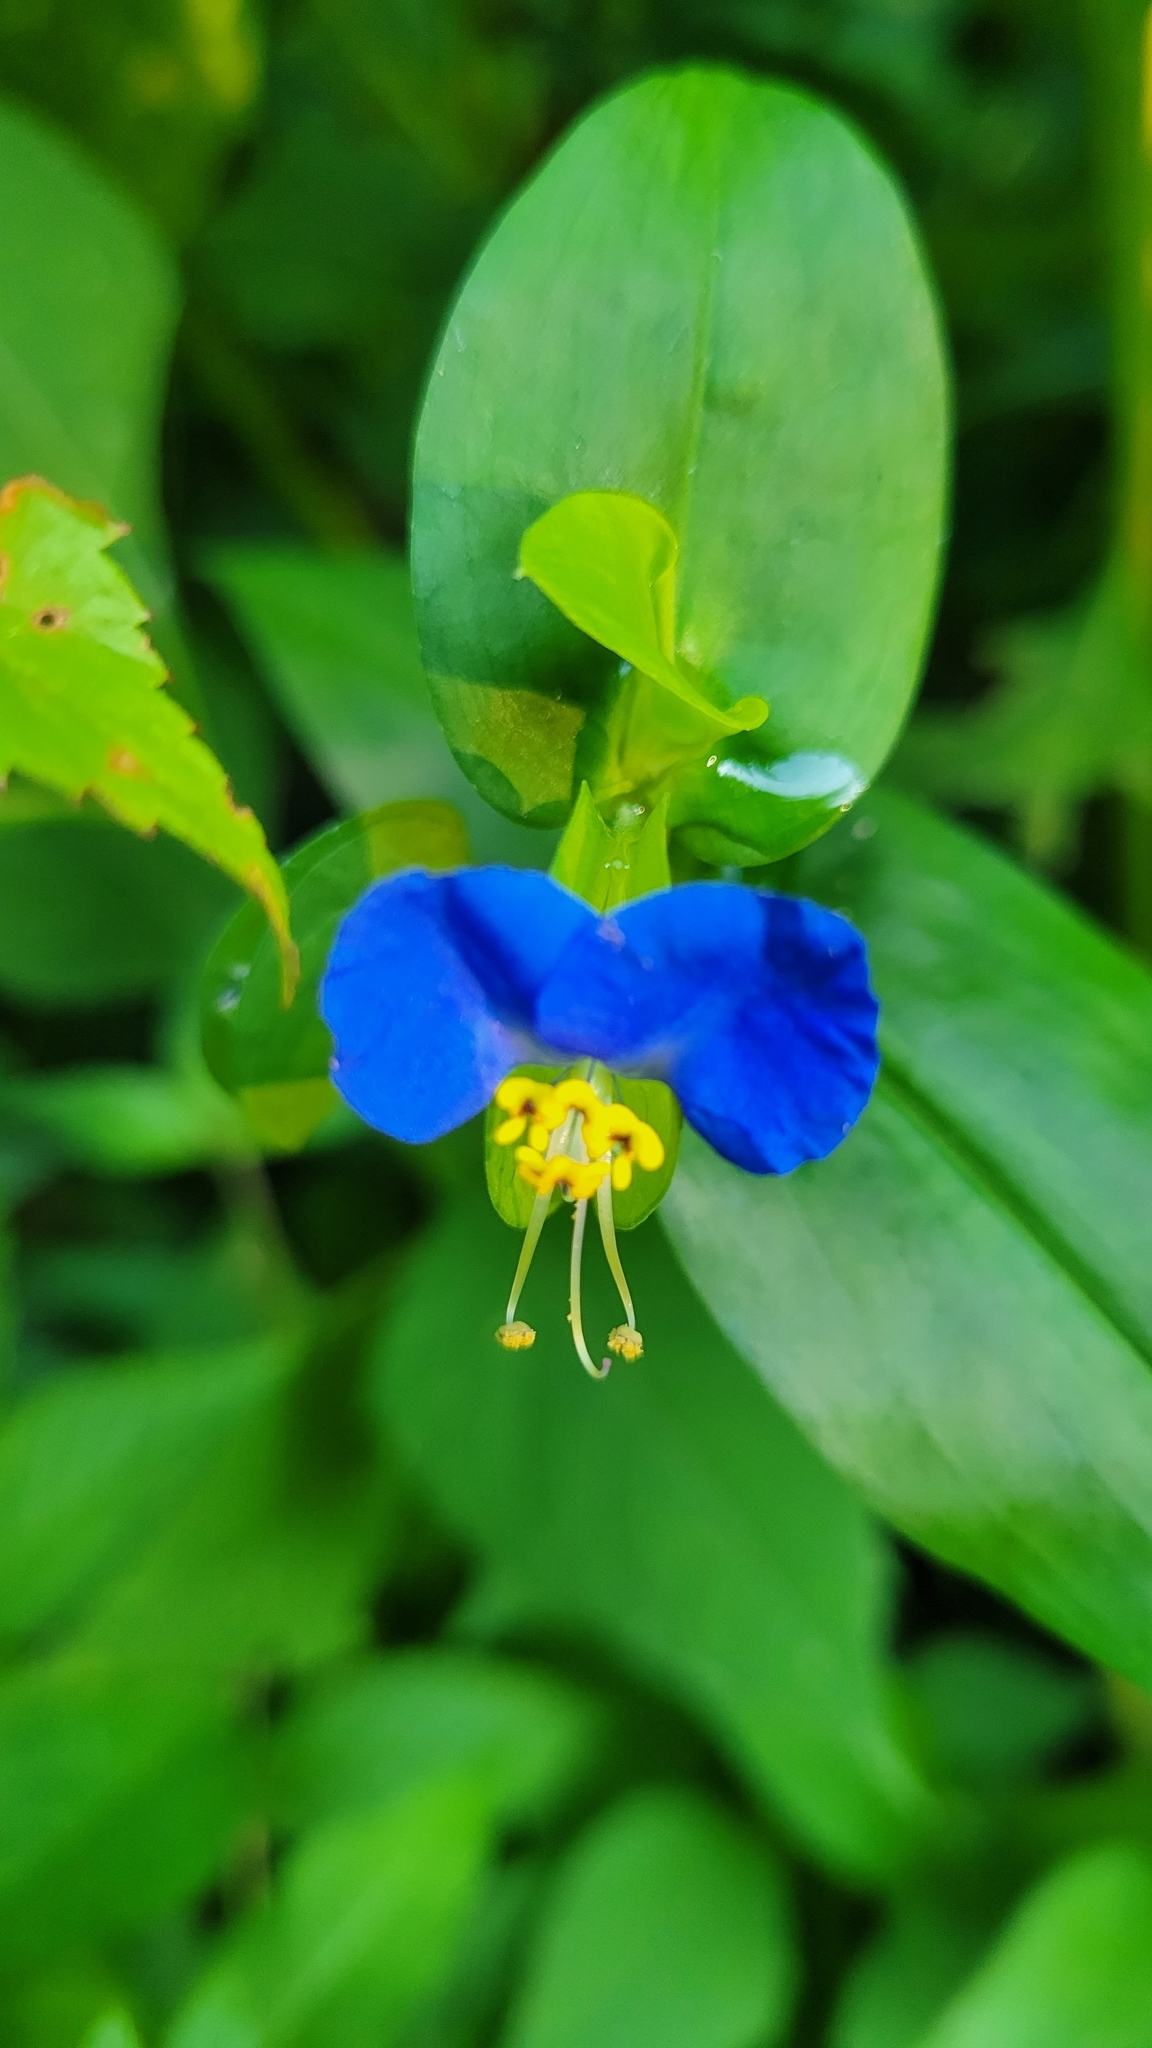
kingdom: Plantae
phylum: Tracheophyta
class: Liliopsida
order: Commelinales
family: Commelinaceae
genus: Commelina
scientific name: Commelina communis
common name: Asiatic dayflower
